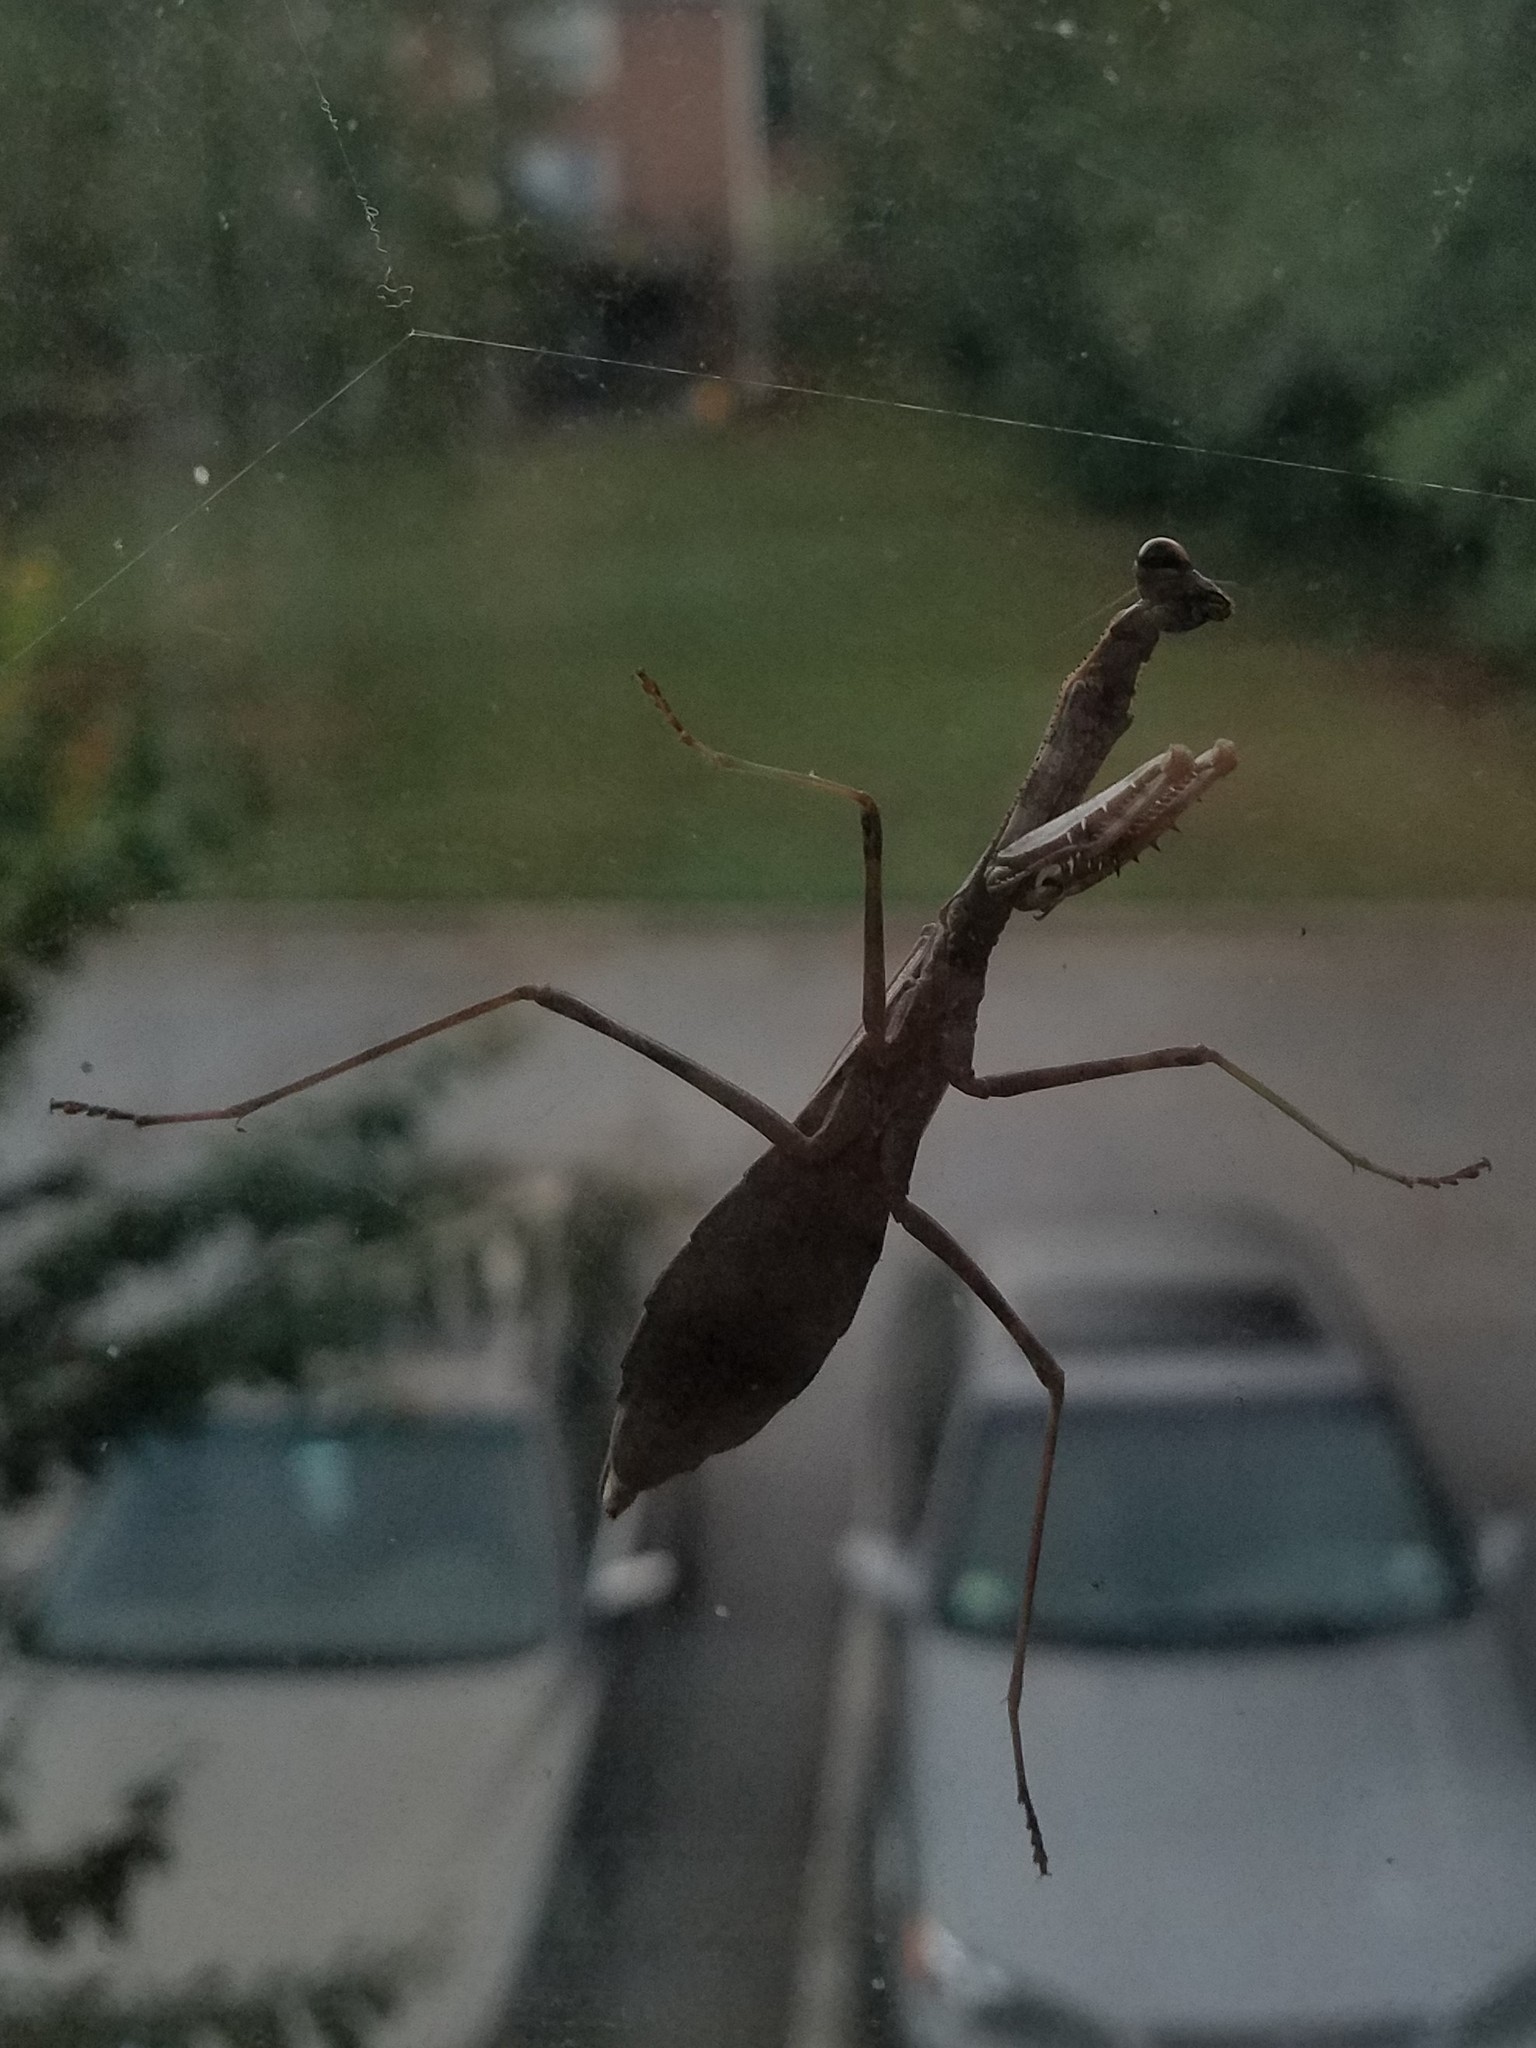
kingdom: Animalia
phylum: Arthropoda
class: Insecta
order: Mantodea
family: Mantidae
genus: Stagmomantis
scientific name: Stagmomantis carolina
